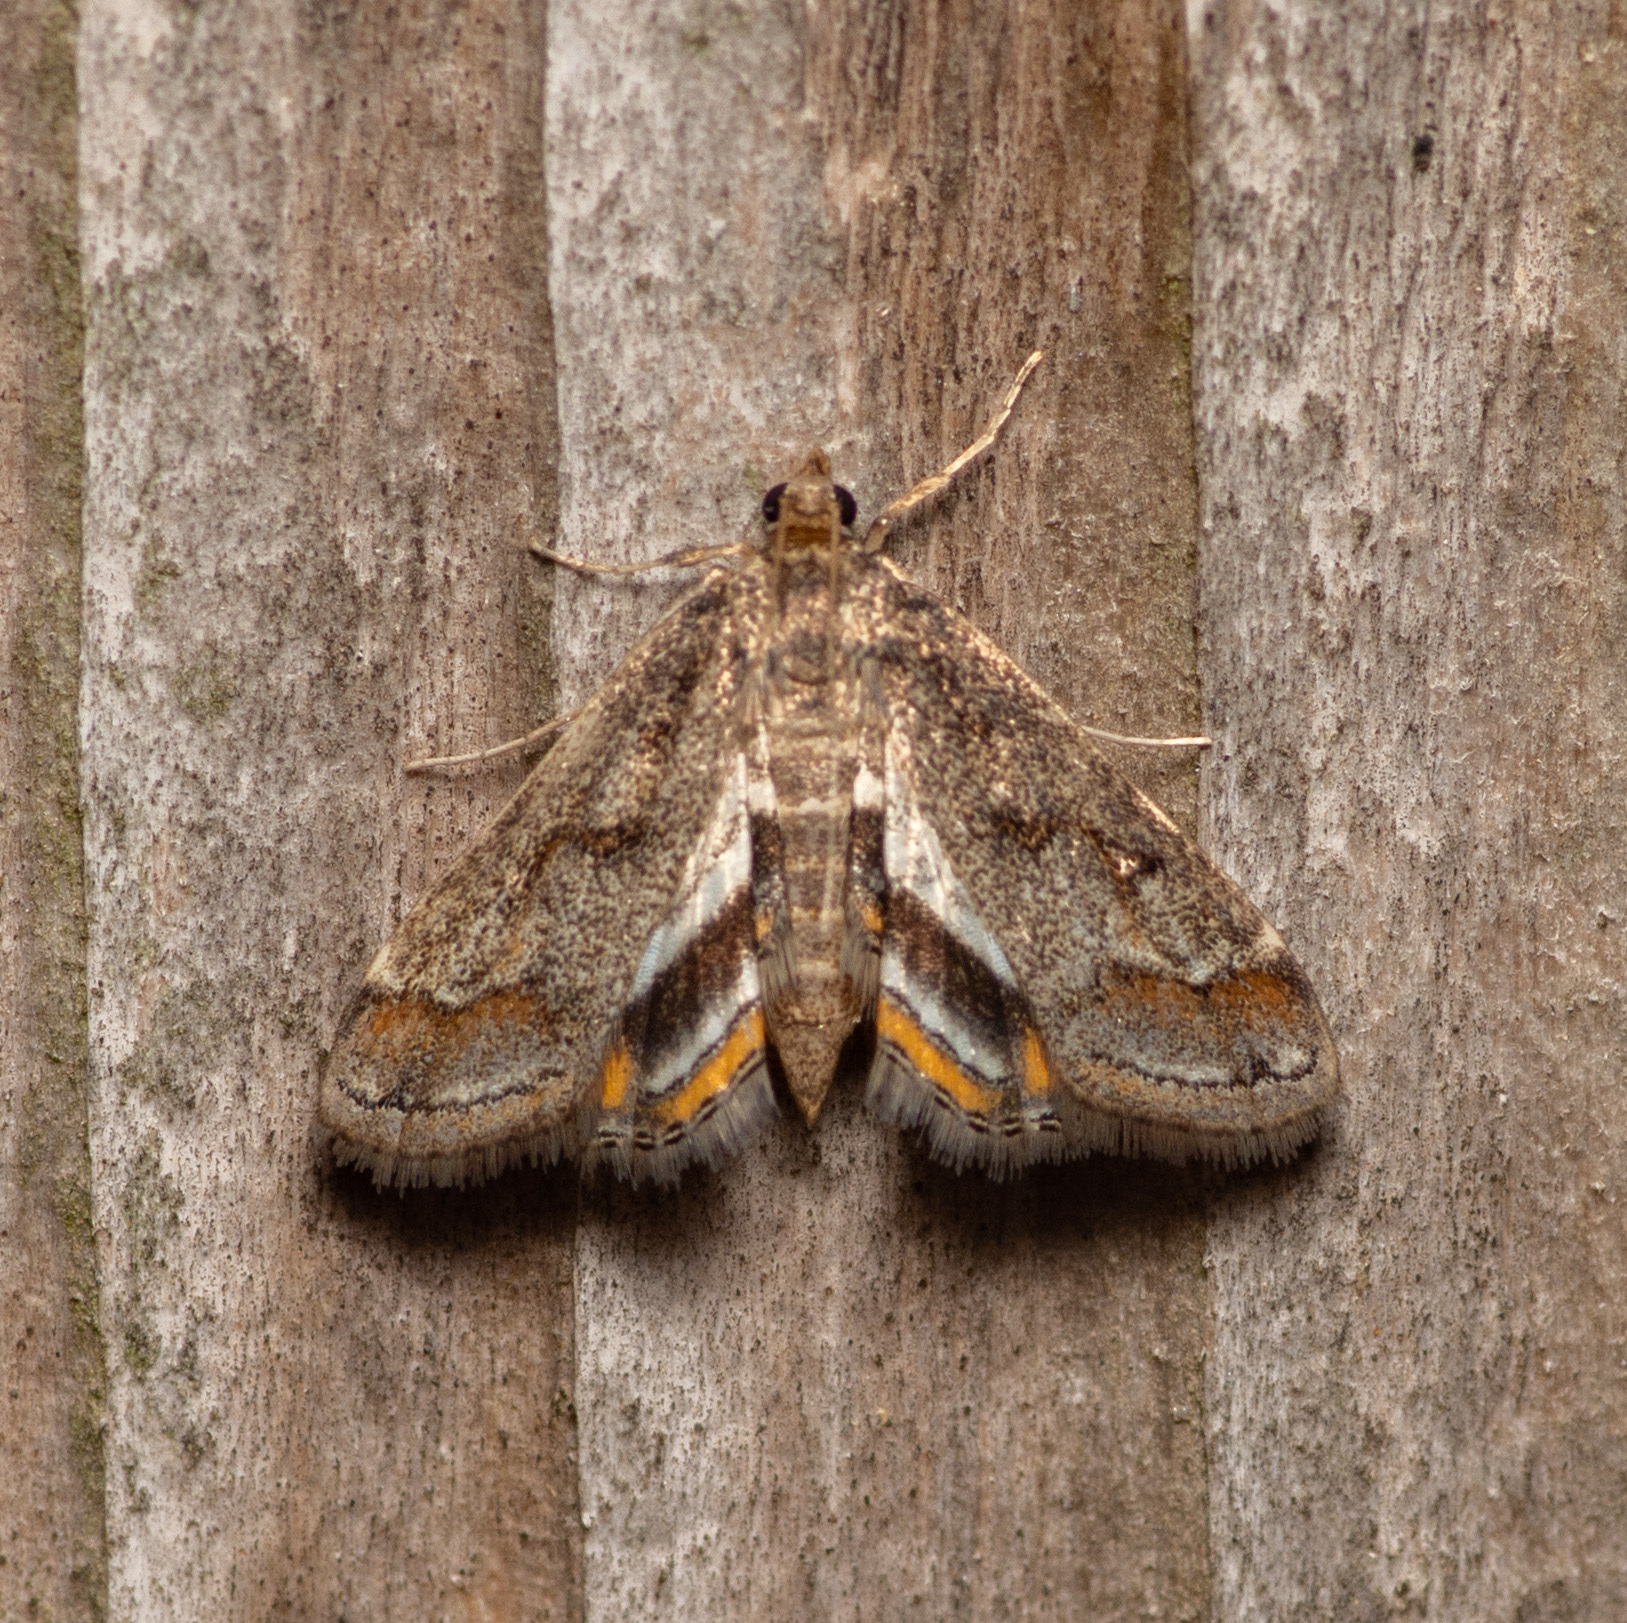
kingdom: Animalia
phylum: Arthropoda
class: Insecta
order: Lepidoptera
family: Crambidae
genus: Parapoynx
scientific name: Parapoynx obscuralis
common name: American china-mark
